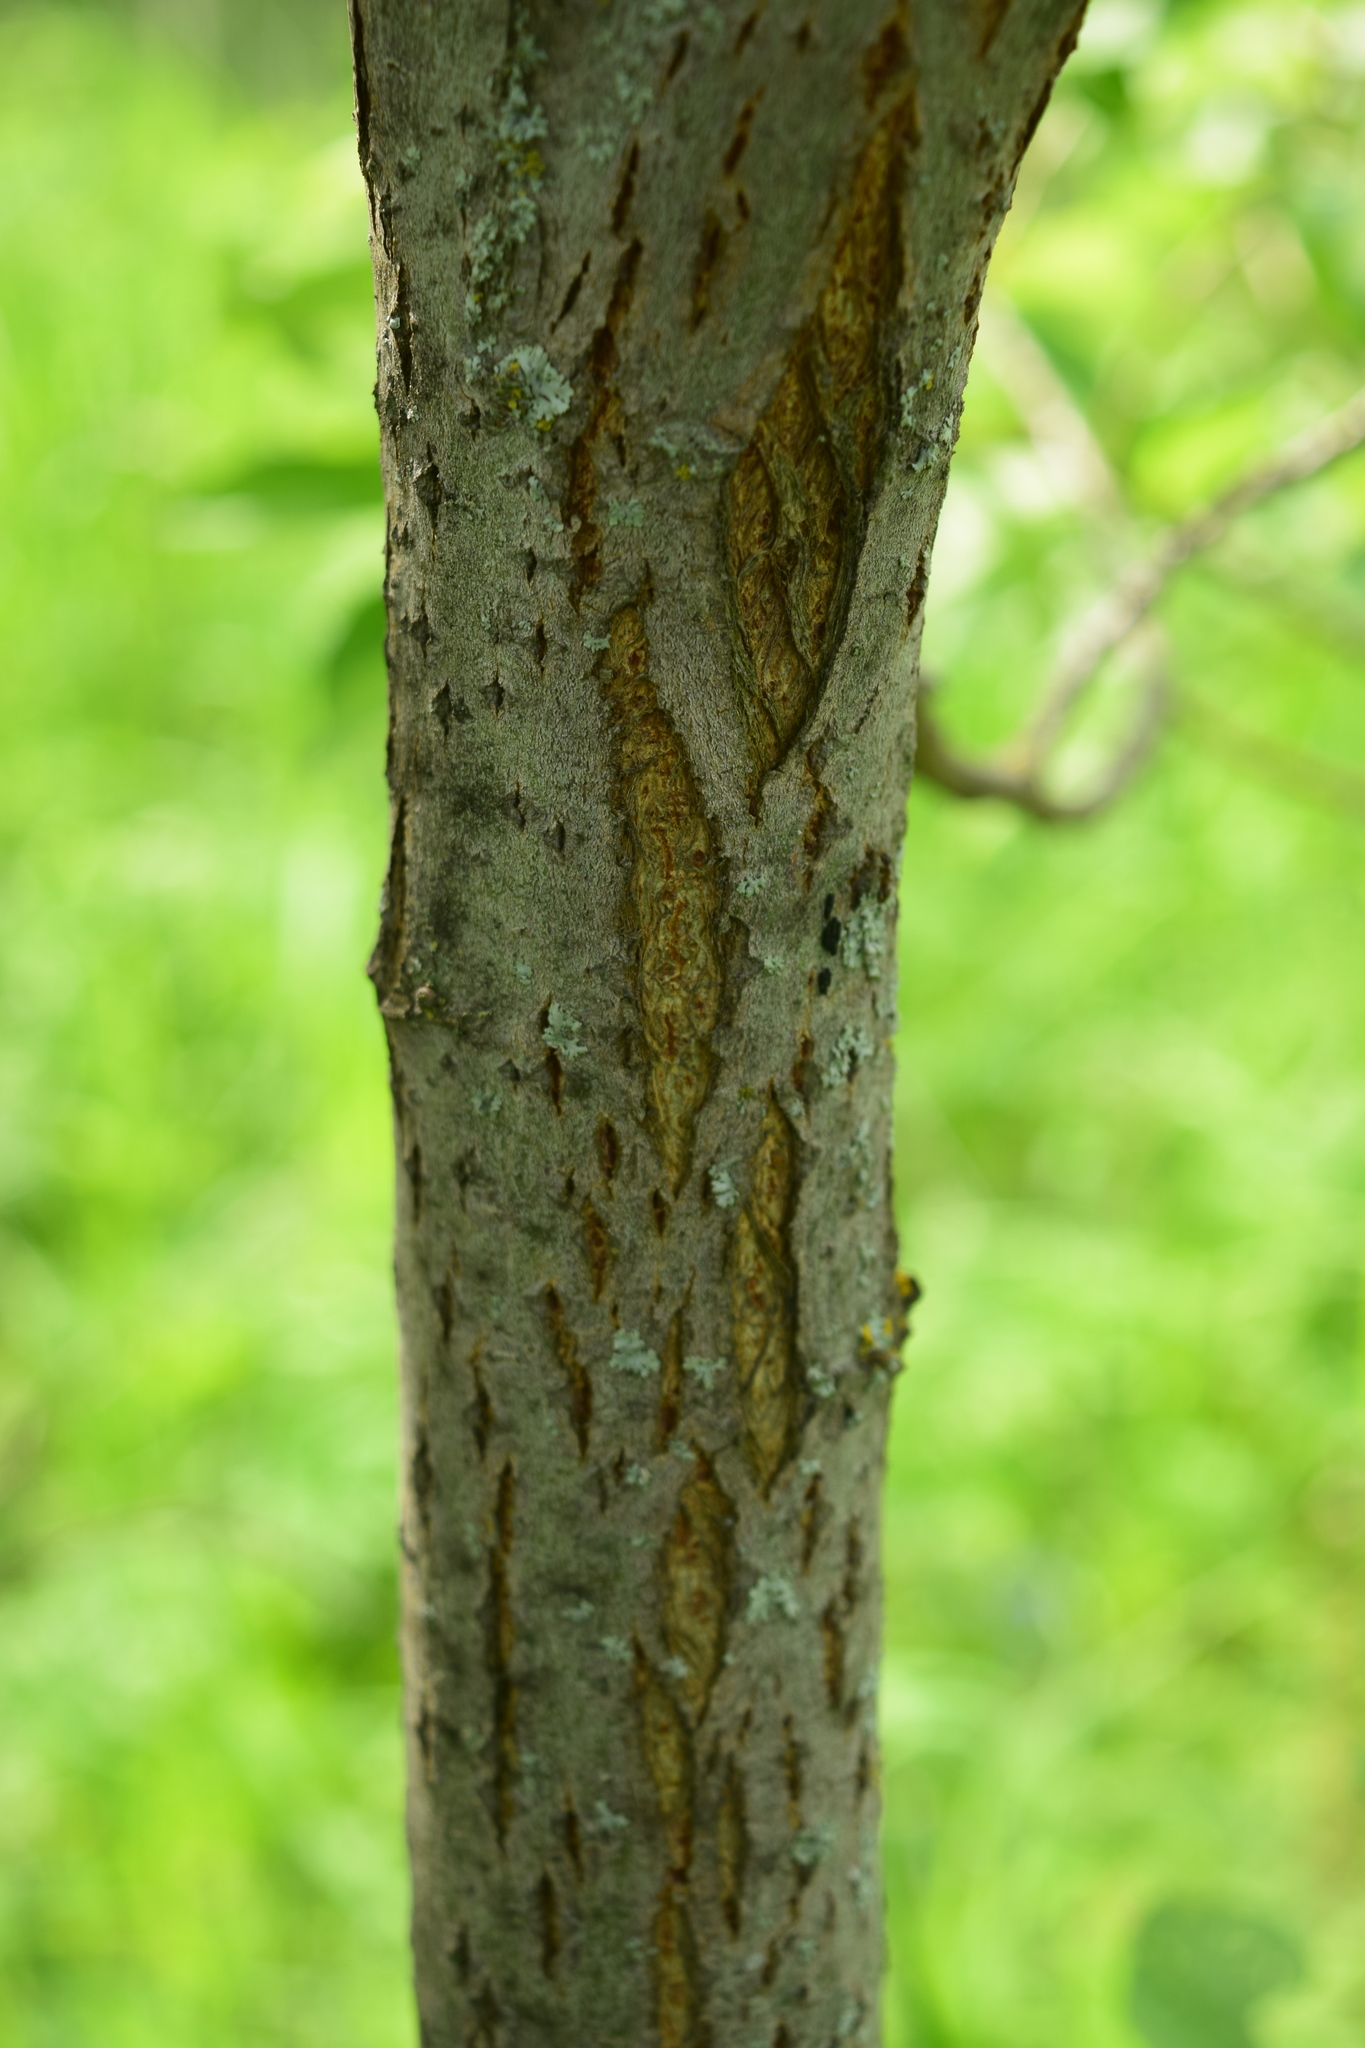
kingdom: Plantae
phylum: Tracheophyta
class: Magnoliopsida
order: Malpighiales
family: Salicaceae
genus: Salix
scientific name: Salix caprea
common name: Goat willow
